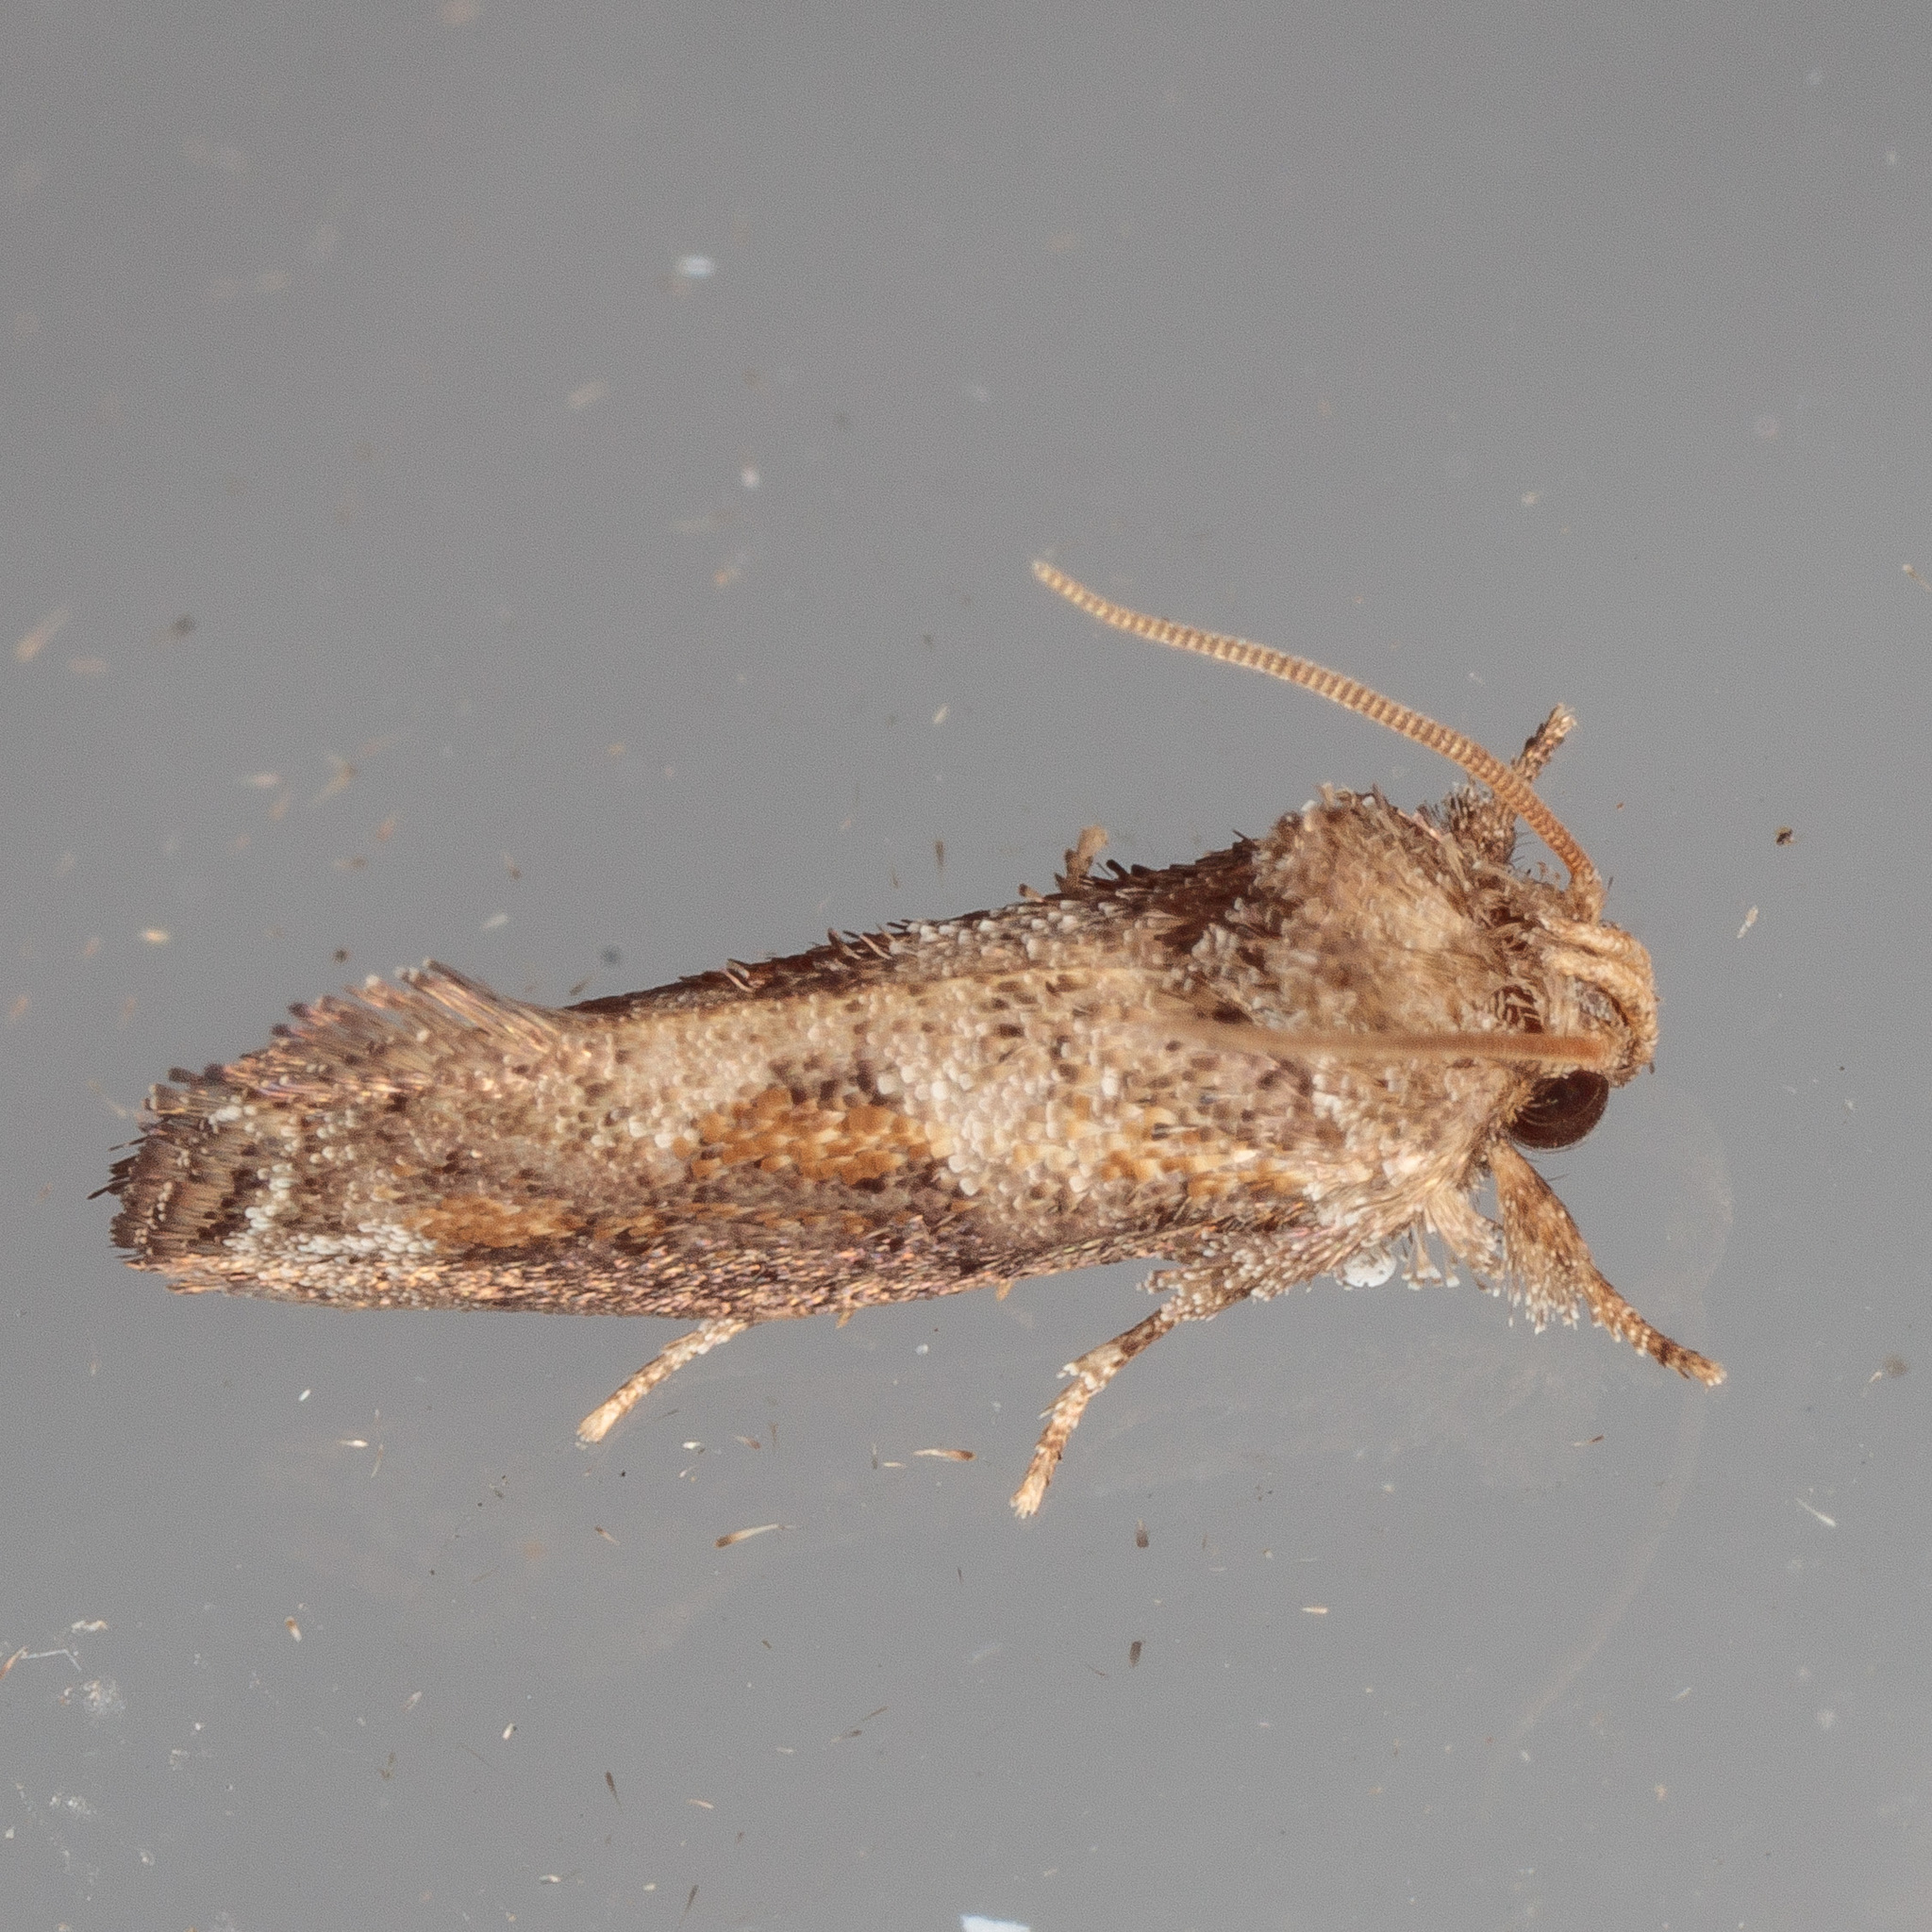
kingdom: Animalia
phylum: Arthropoda
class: Insecta
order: Lepidoptera
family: Tineidae
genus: Acrolophus
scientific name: Acrolophus piger
